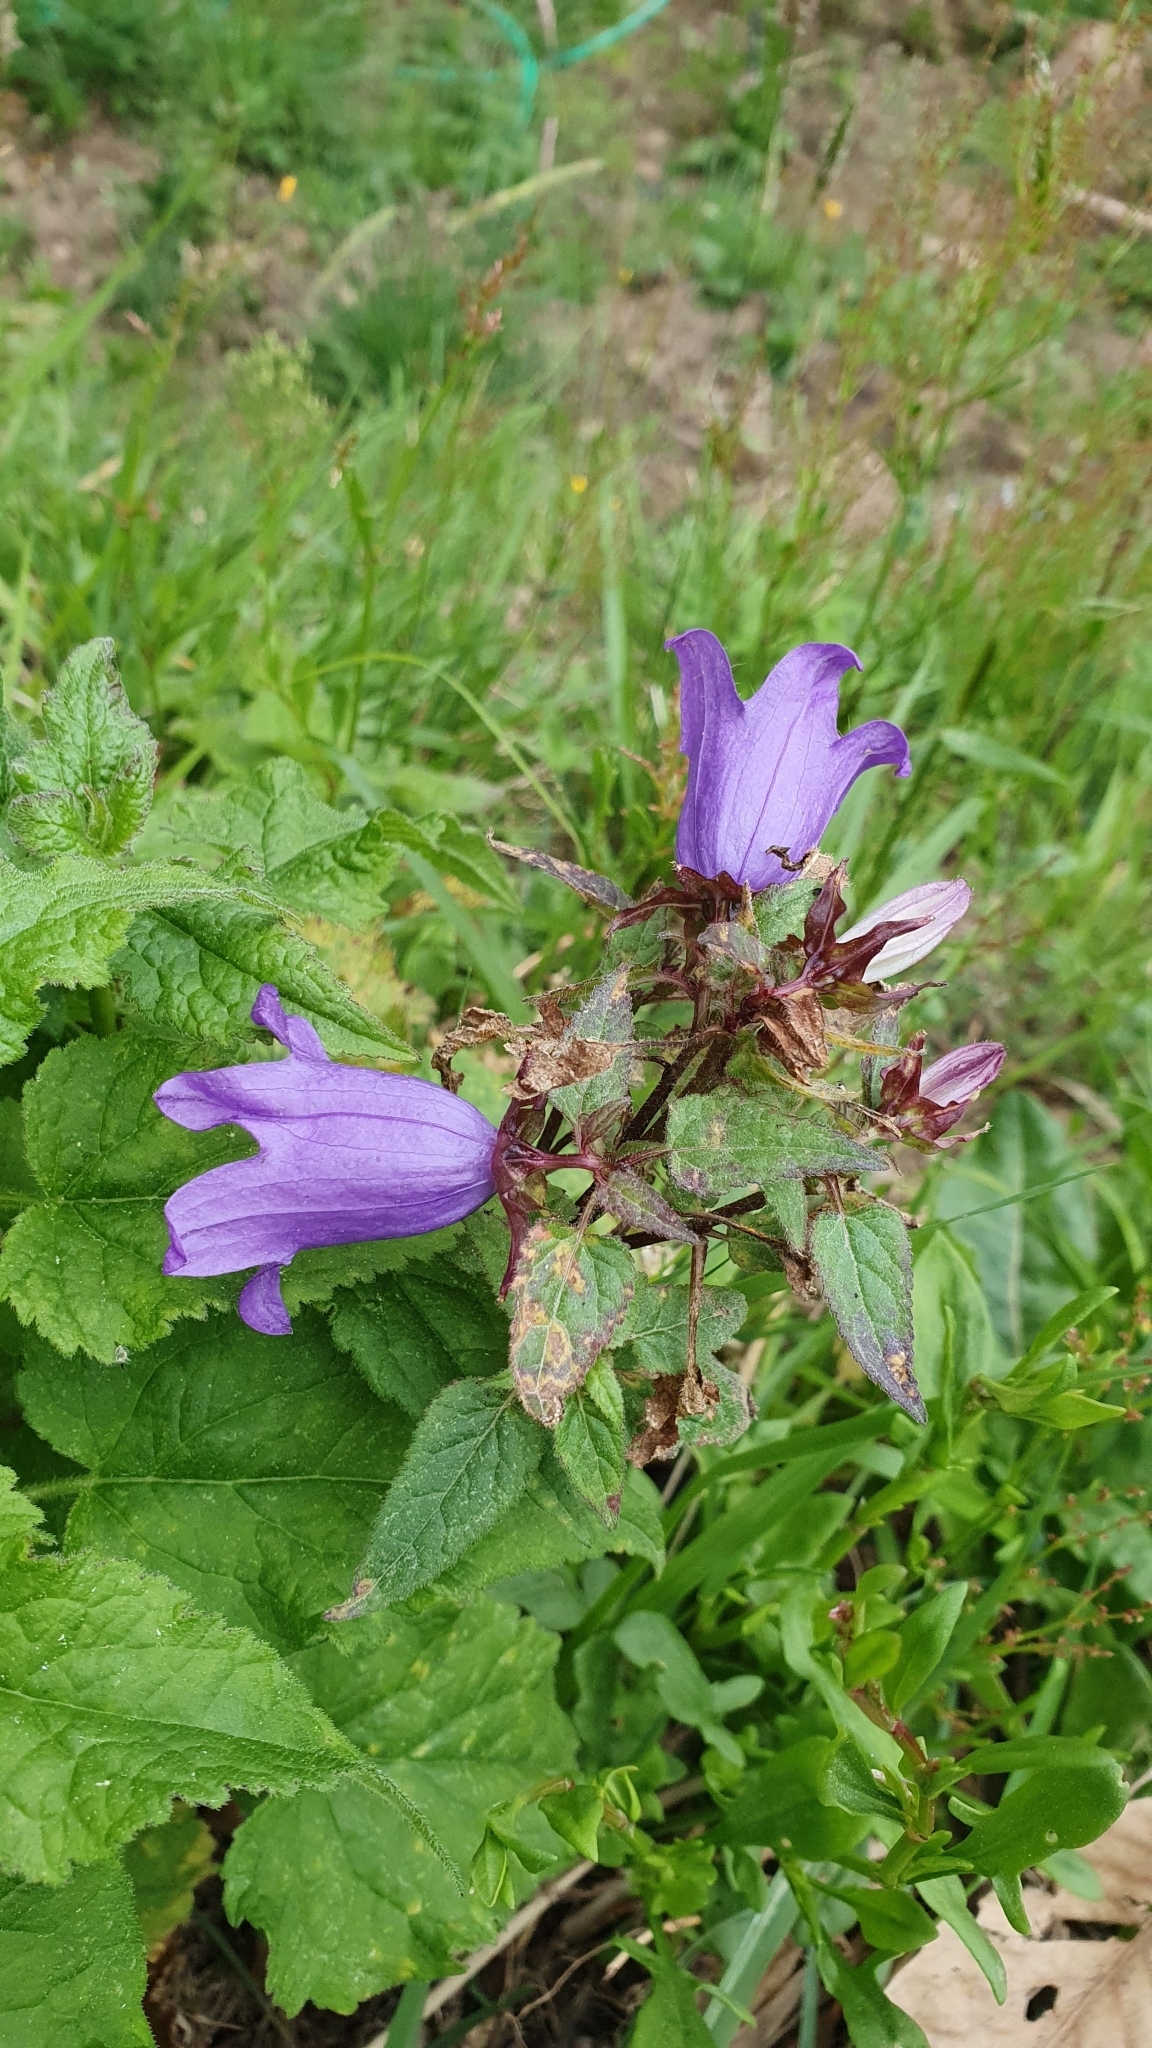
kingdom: Plantae
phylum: Tracheophyta
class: Magnoliopsida
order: Asterales
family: Campanulaceae
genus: Campanula
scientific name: Campanula trachelium
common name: Nettle-leaved bellflower
